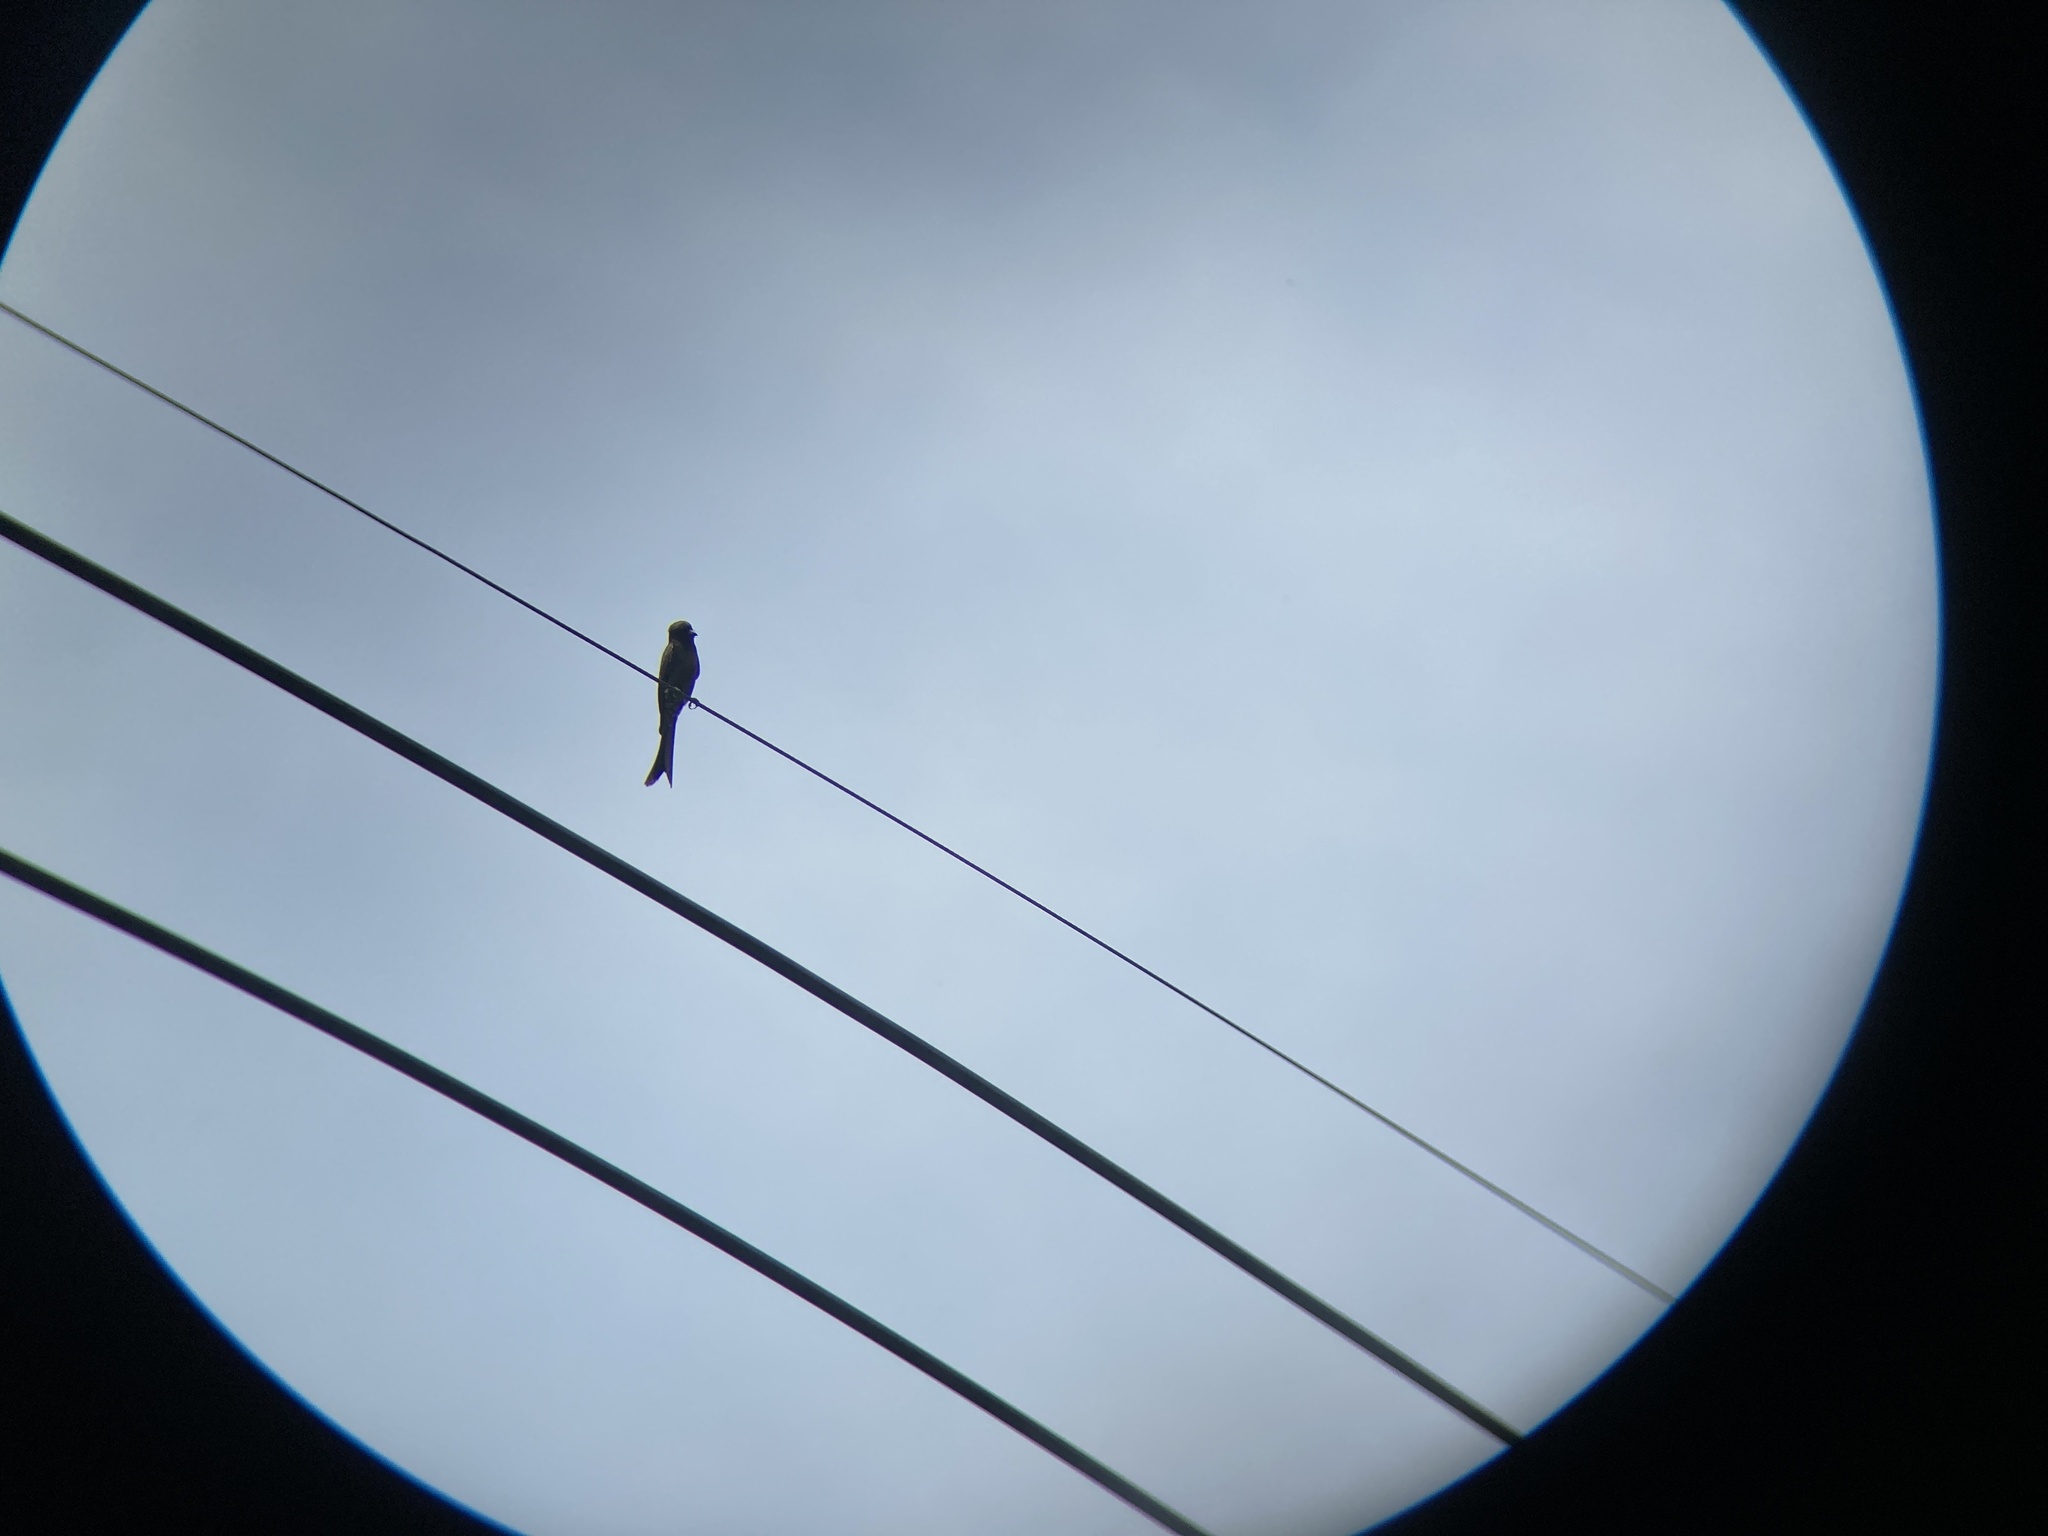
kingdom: Animalia
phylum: Chordata
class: Aves
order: Passeriformes
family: Dicruridae
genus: Dicrurus
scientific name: Dicrurus macrocercus
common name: Black drongo
